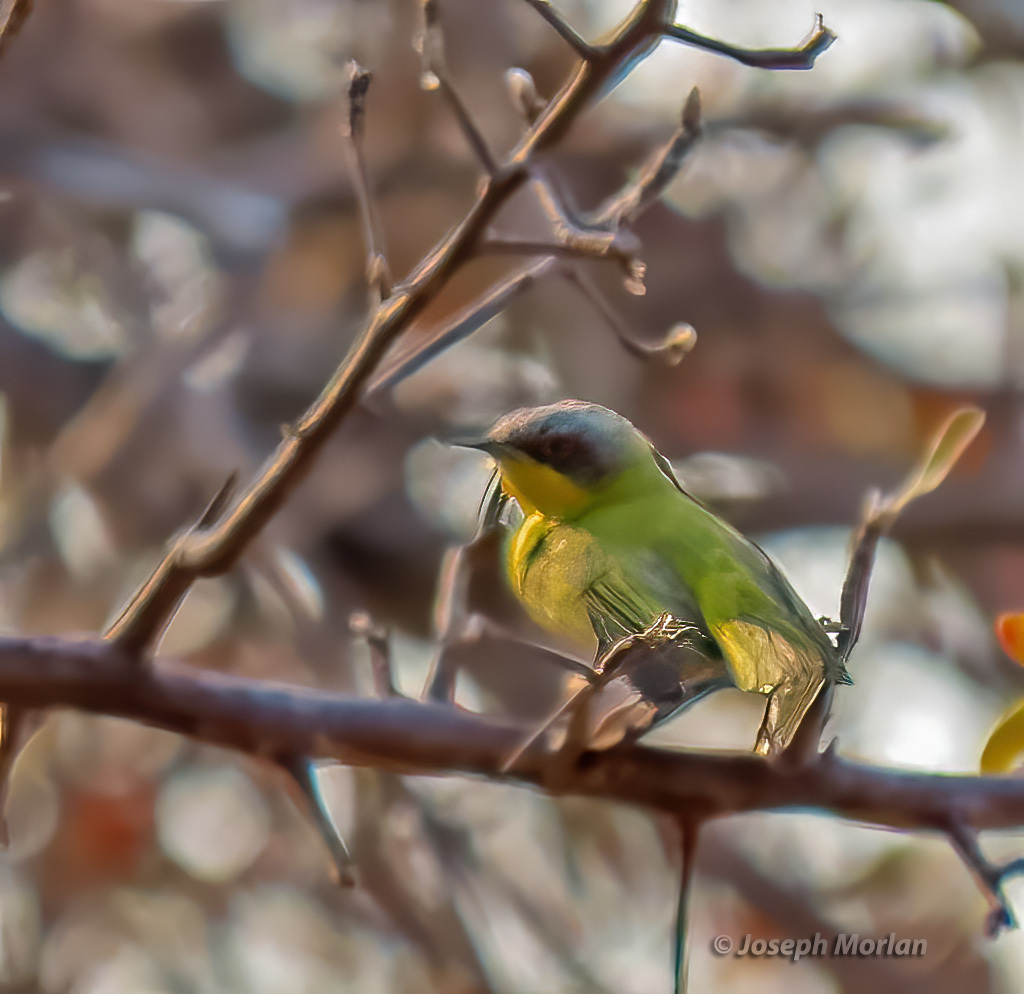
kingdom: Animalia
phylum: Chordata
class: Aves
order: Passeriformes
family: Cisticolidae
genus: Apalis
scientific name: Apalis flavida
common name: Yellow-breasted apalis
